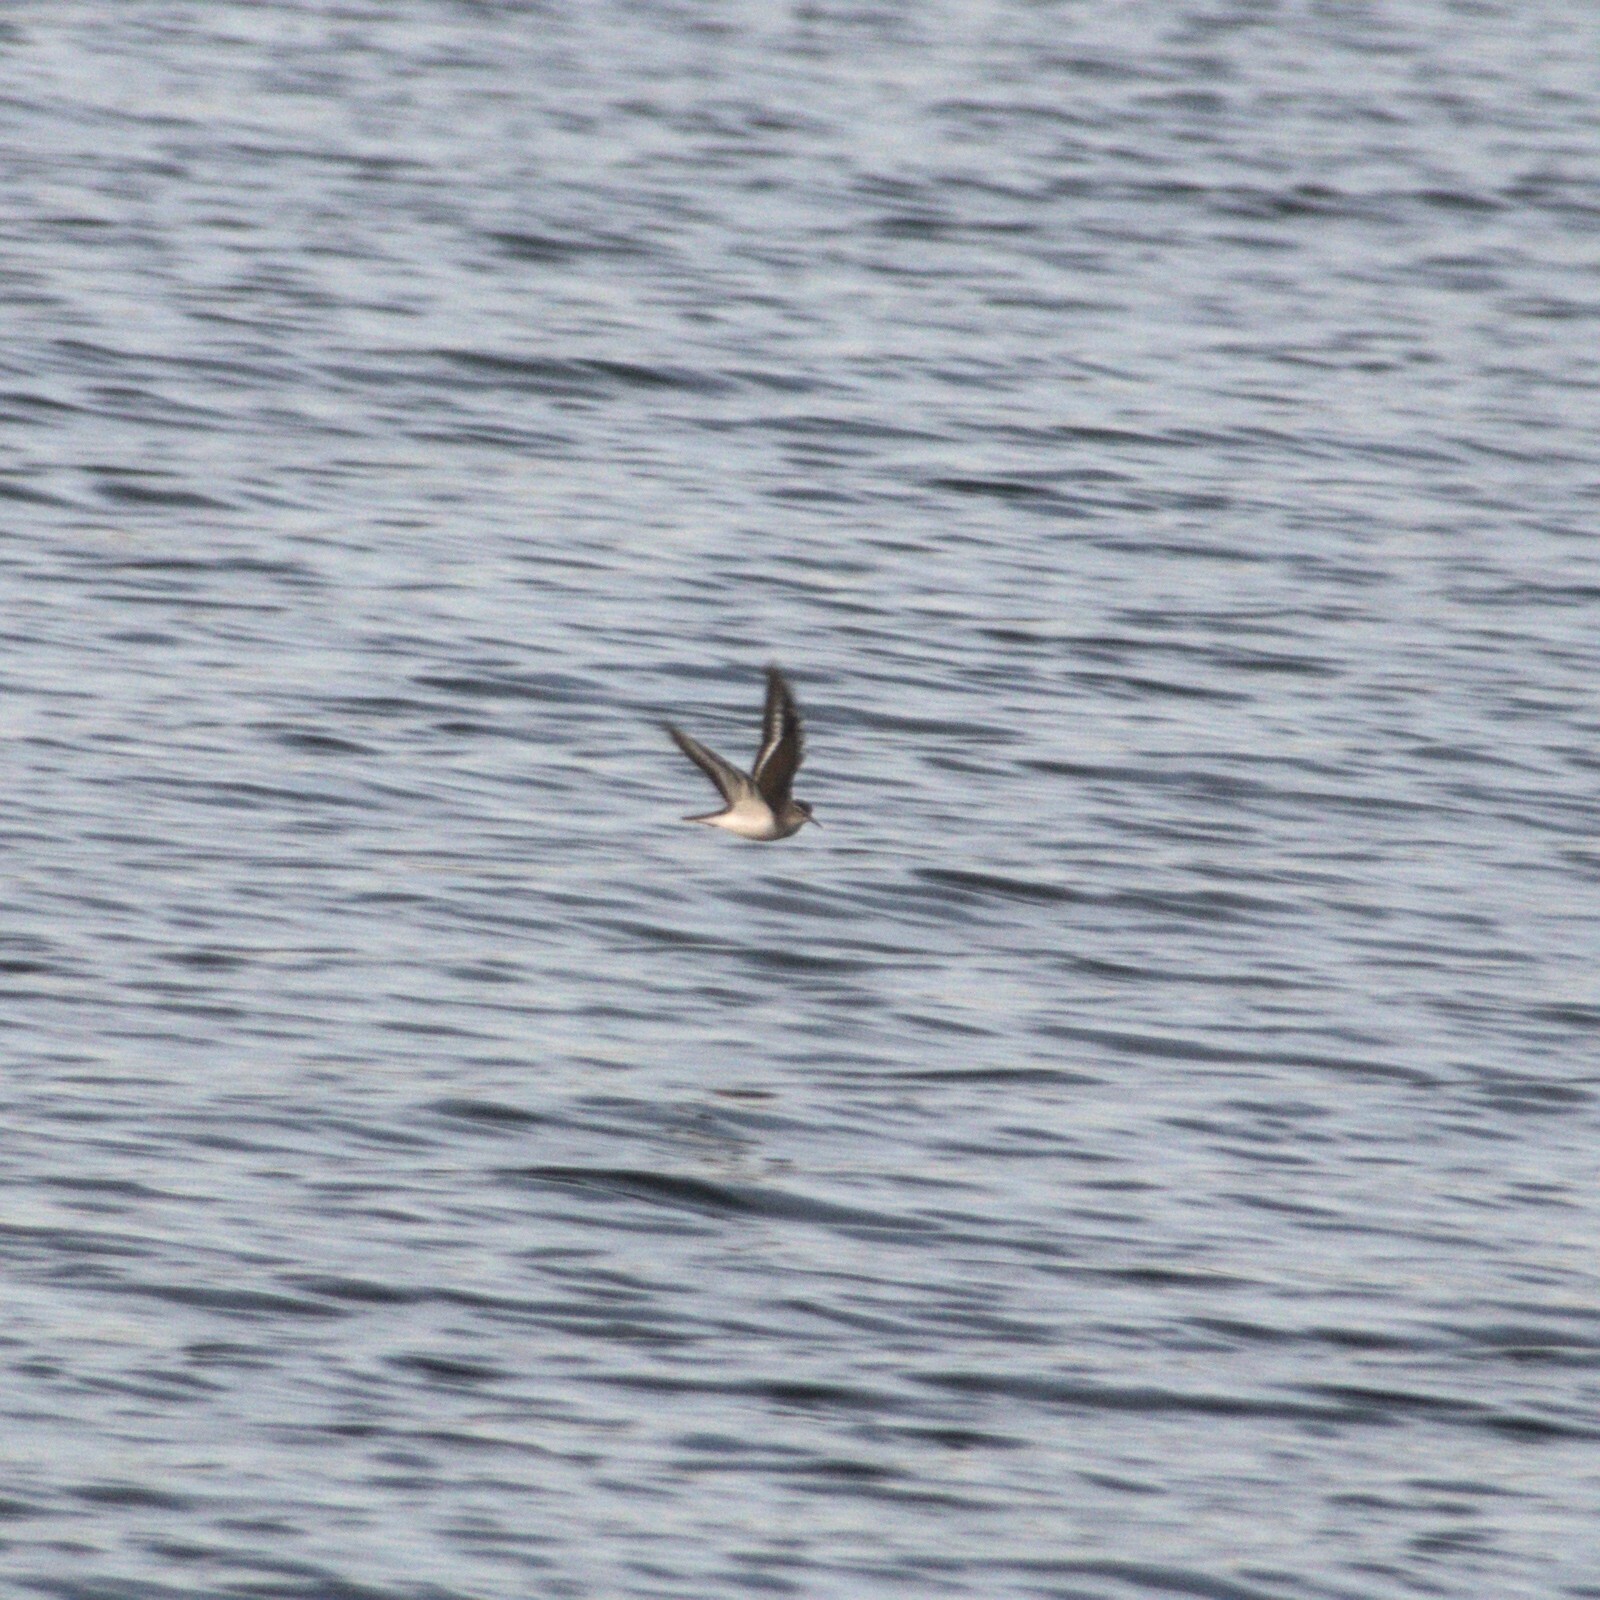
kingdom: Animalia
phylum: Chordata
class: Aves
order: Charadriiformes
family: Scolopacidae
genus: Actitis
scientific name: Actitis hypoleucos
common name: Common sandpiper
